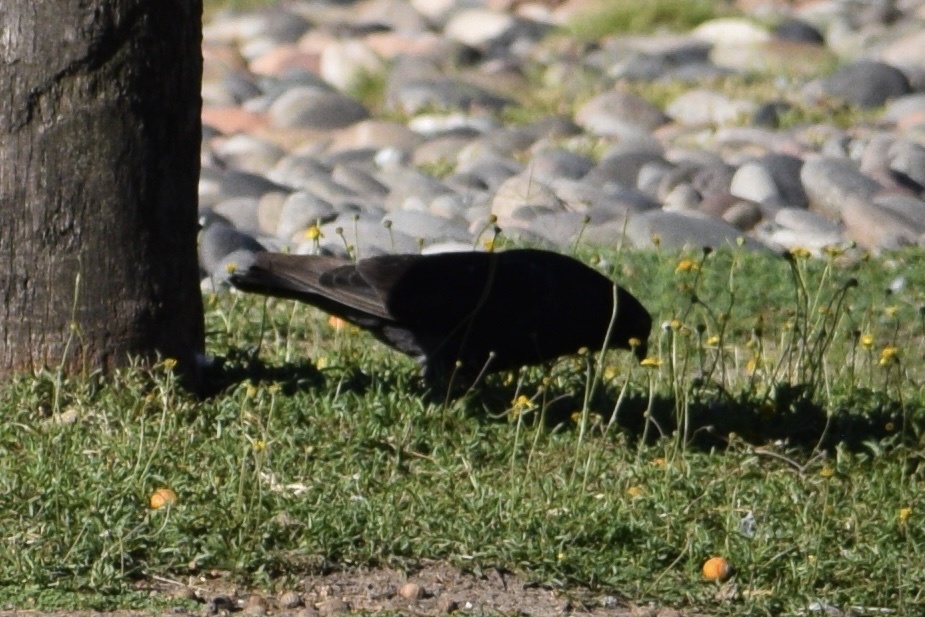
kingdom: Animalia
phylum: Chordata
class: Aves
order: Columbiformes
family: Columbidae
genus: Columba
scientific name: Columba livia
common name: Rock pigeon
